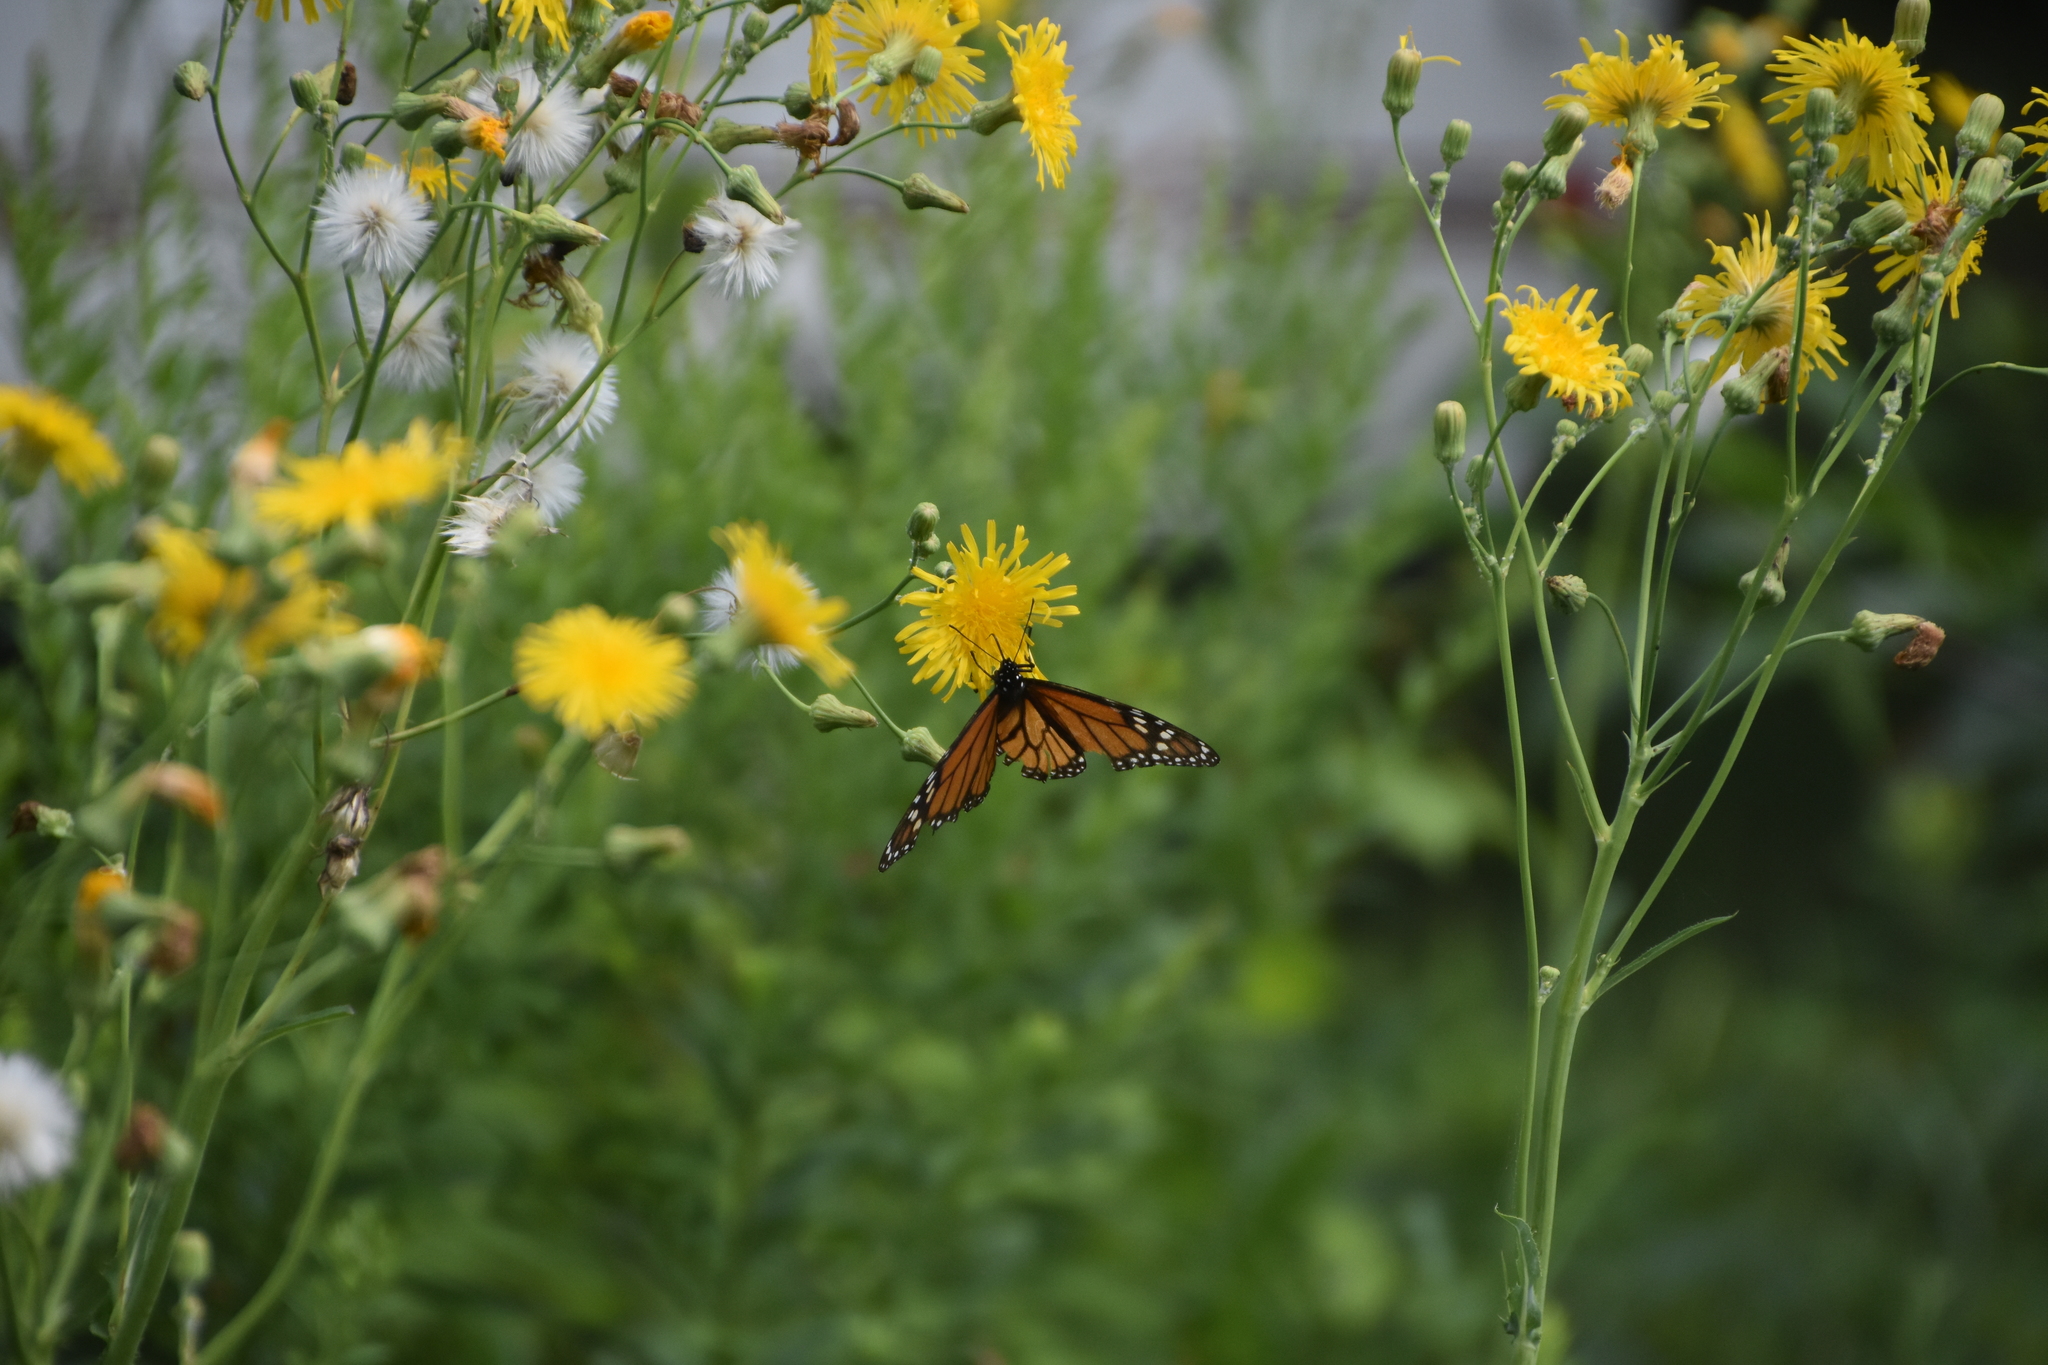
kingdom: Animalia
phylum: Arthropoda
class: Insecta
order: Lepidoptera
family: Nymphalidae
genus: Danaus
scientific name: Danaus plexippus
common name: Monarch
